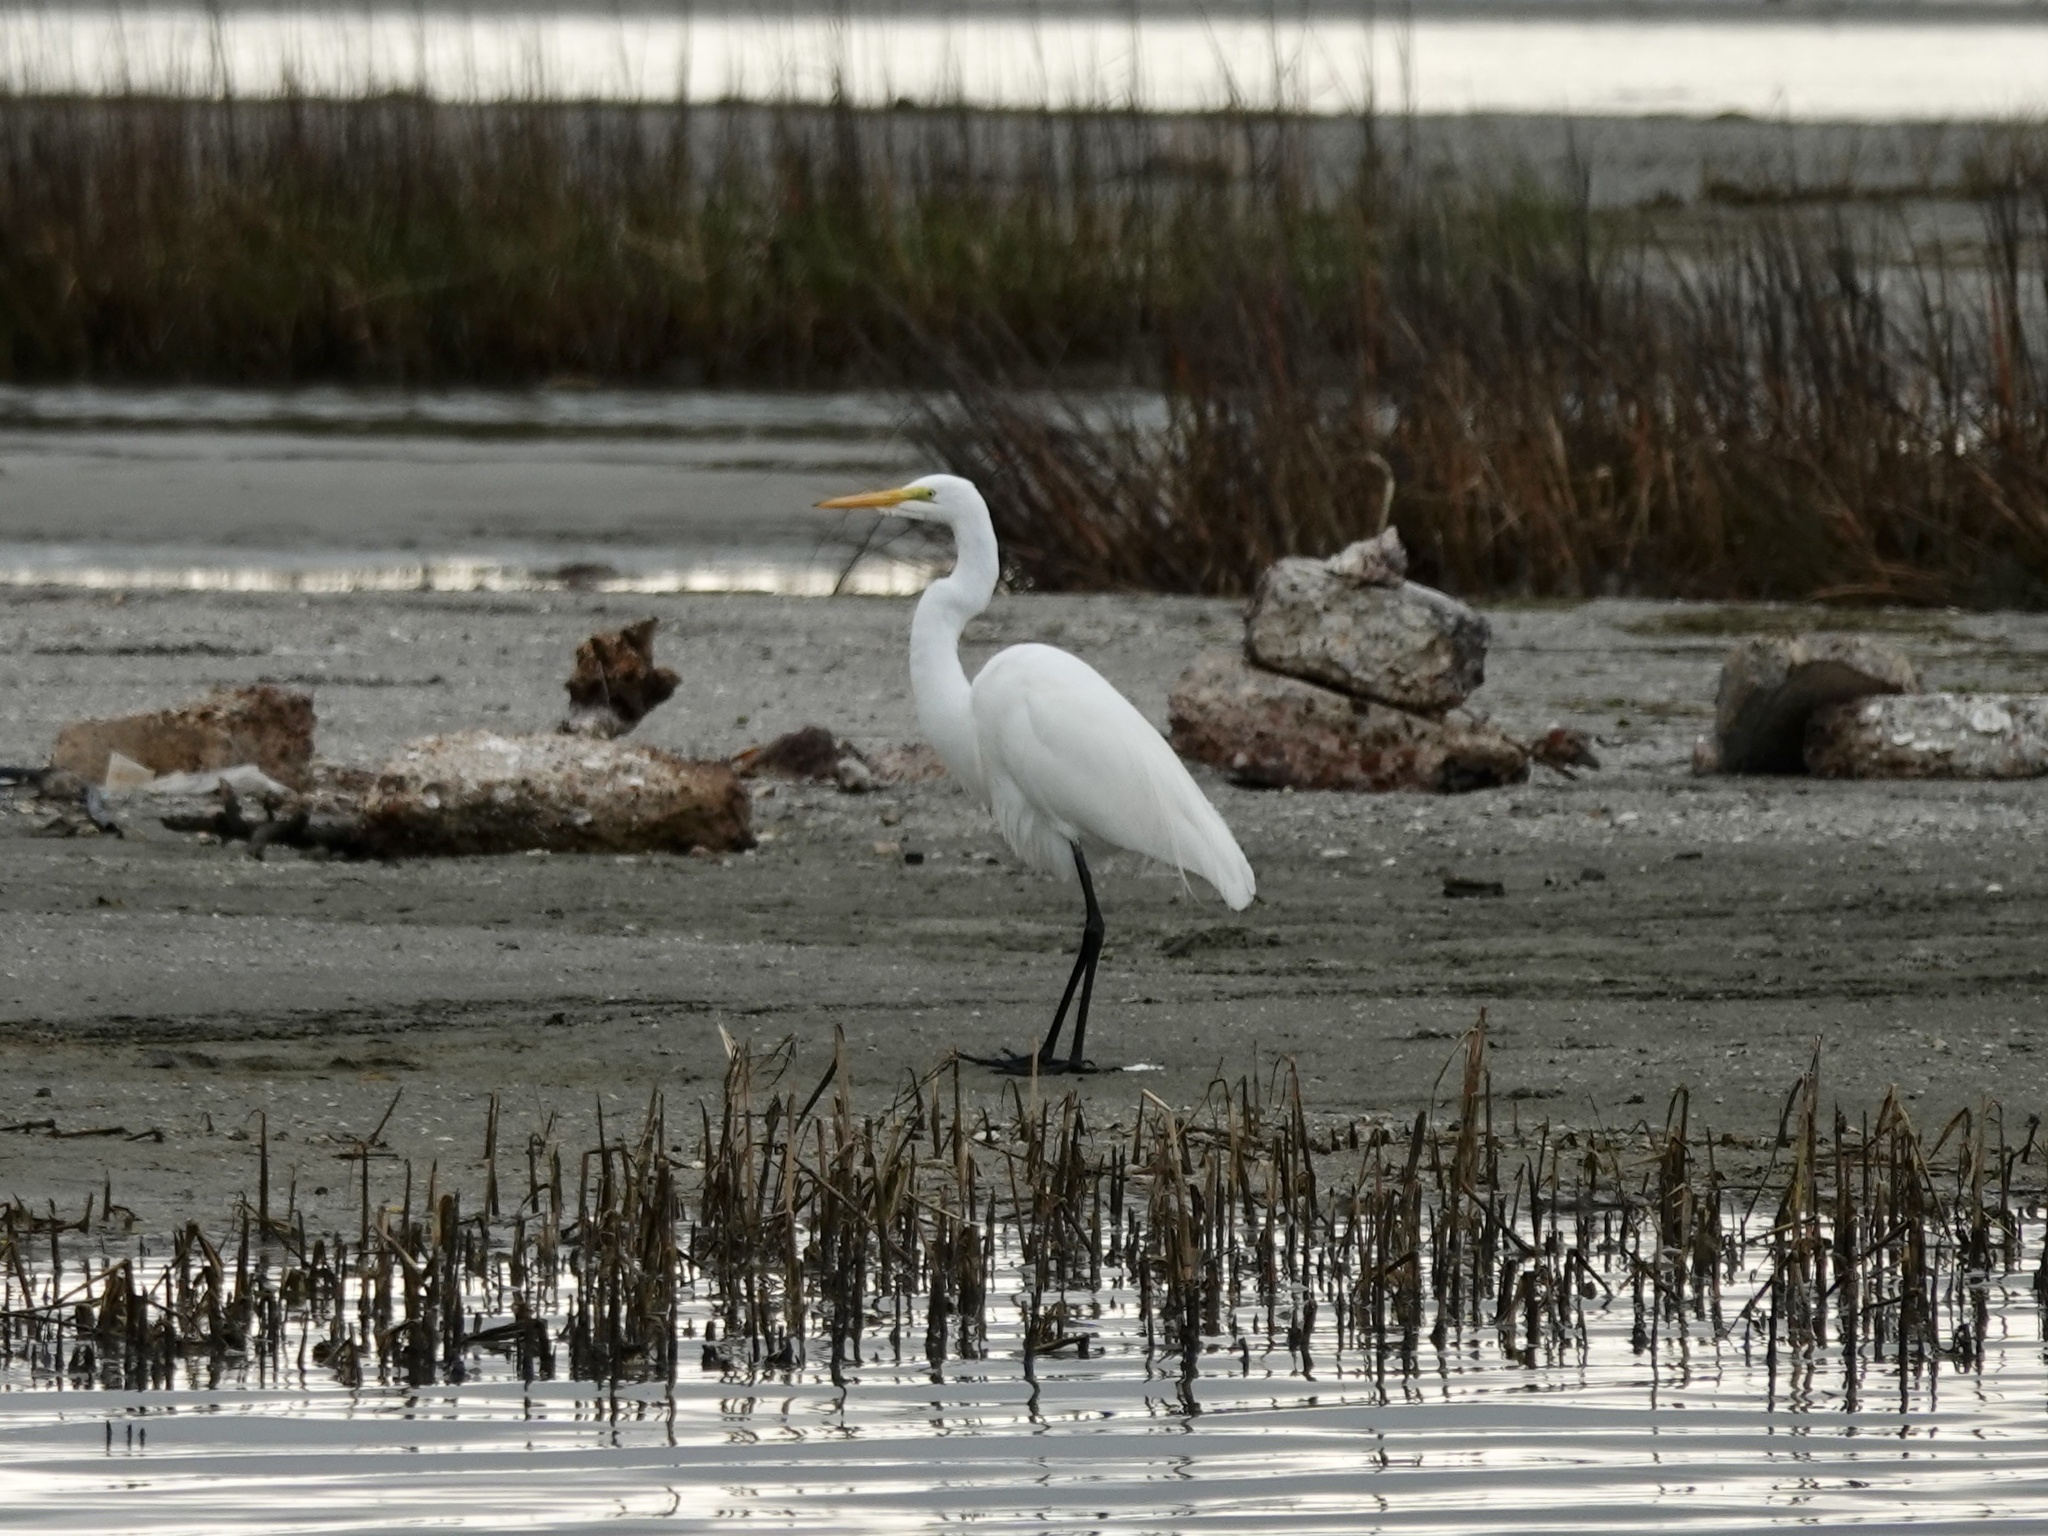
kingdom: Animalia
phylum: Chordata
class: Aves
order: Pelecaniformes
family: Ardeidae
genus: Ardea
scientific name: Ardea alba
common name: Great egret
